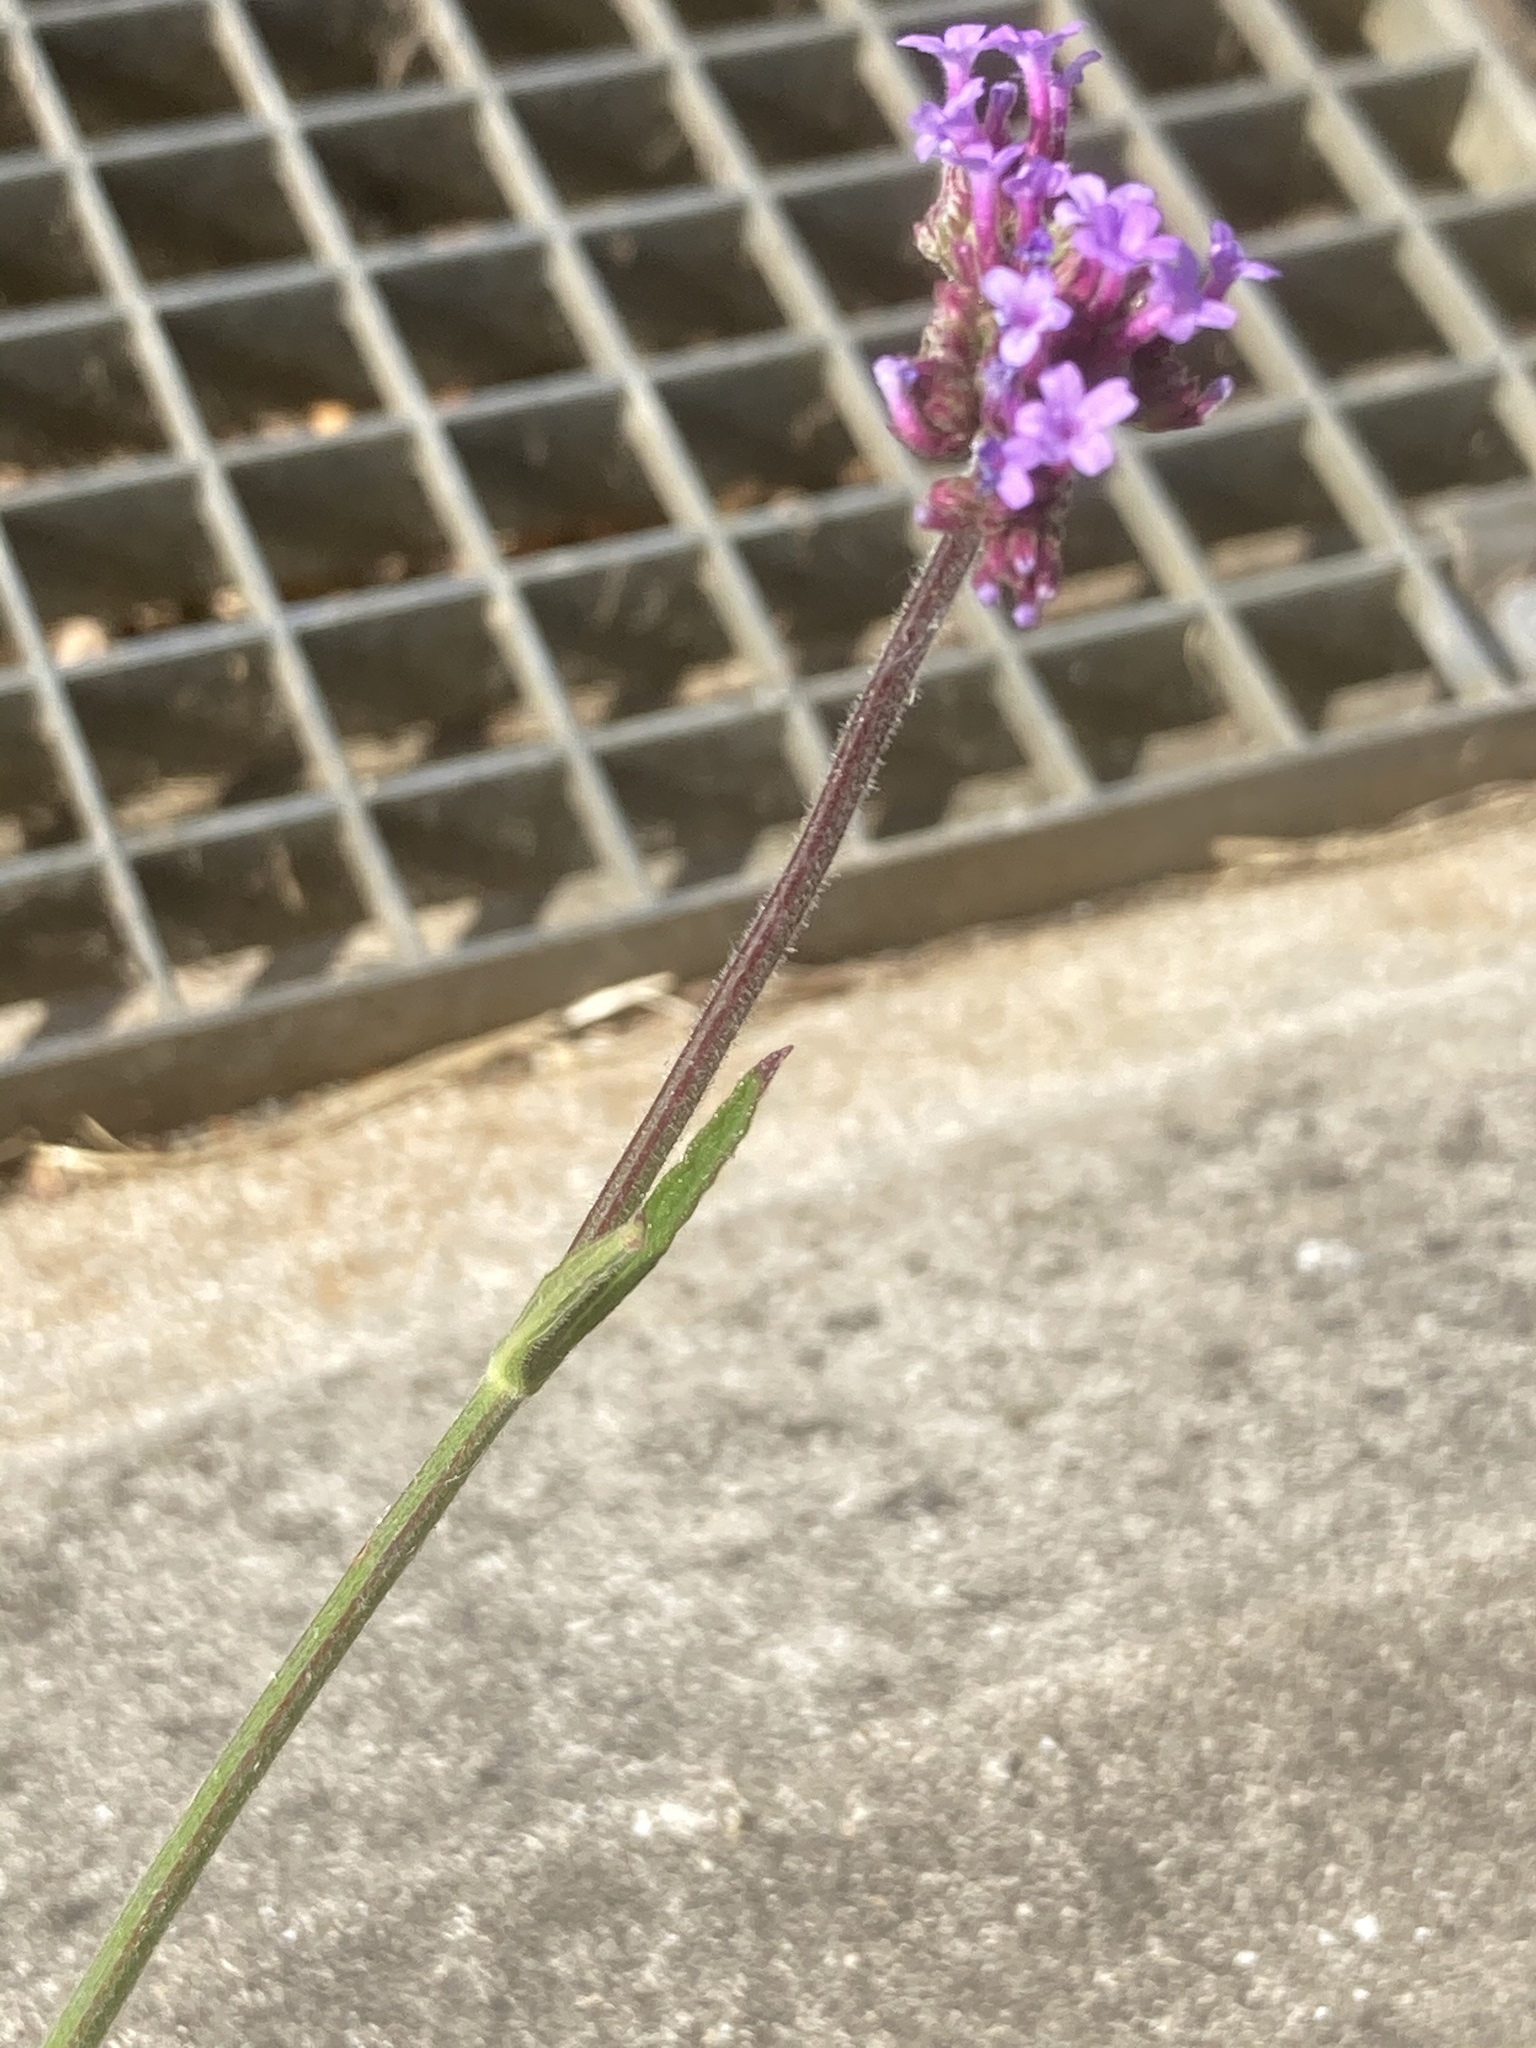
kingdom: Plantae
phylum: Tracheophyta
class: Magnoliopsida
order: Lamiales
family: Verbenaceae
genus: Verbena
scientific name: Verbena bonariensis
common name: Purpletop vervain
